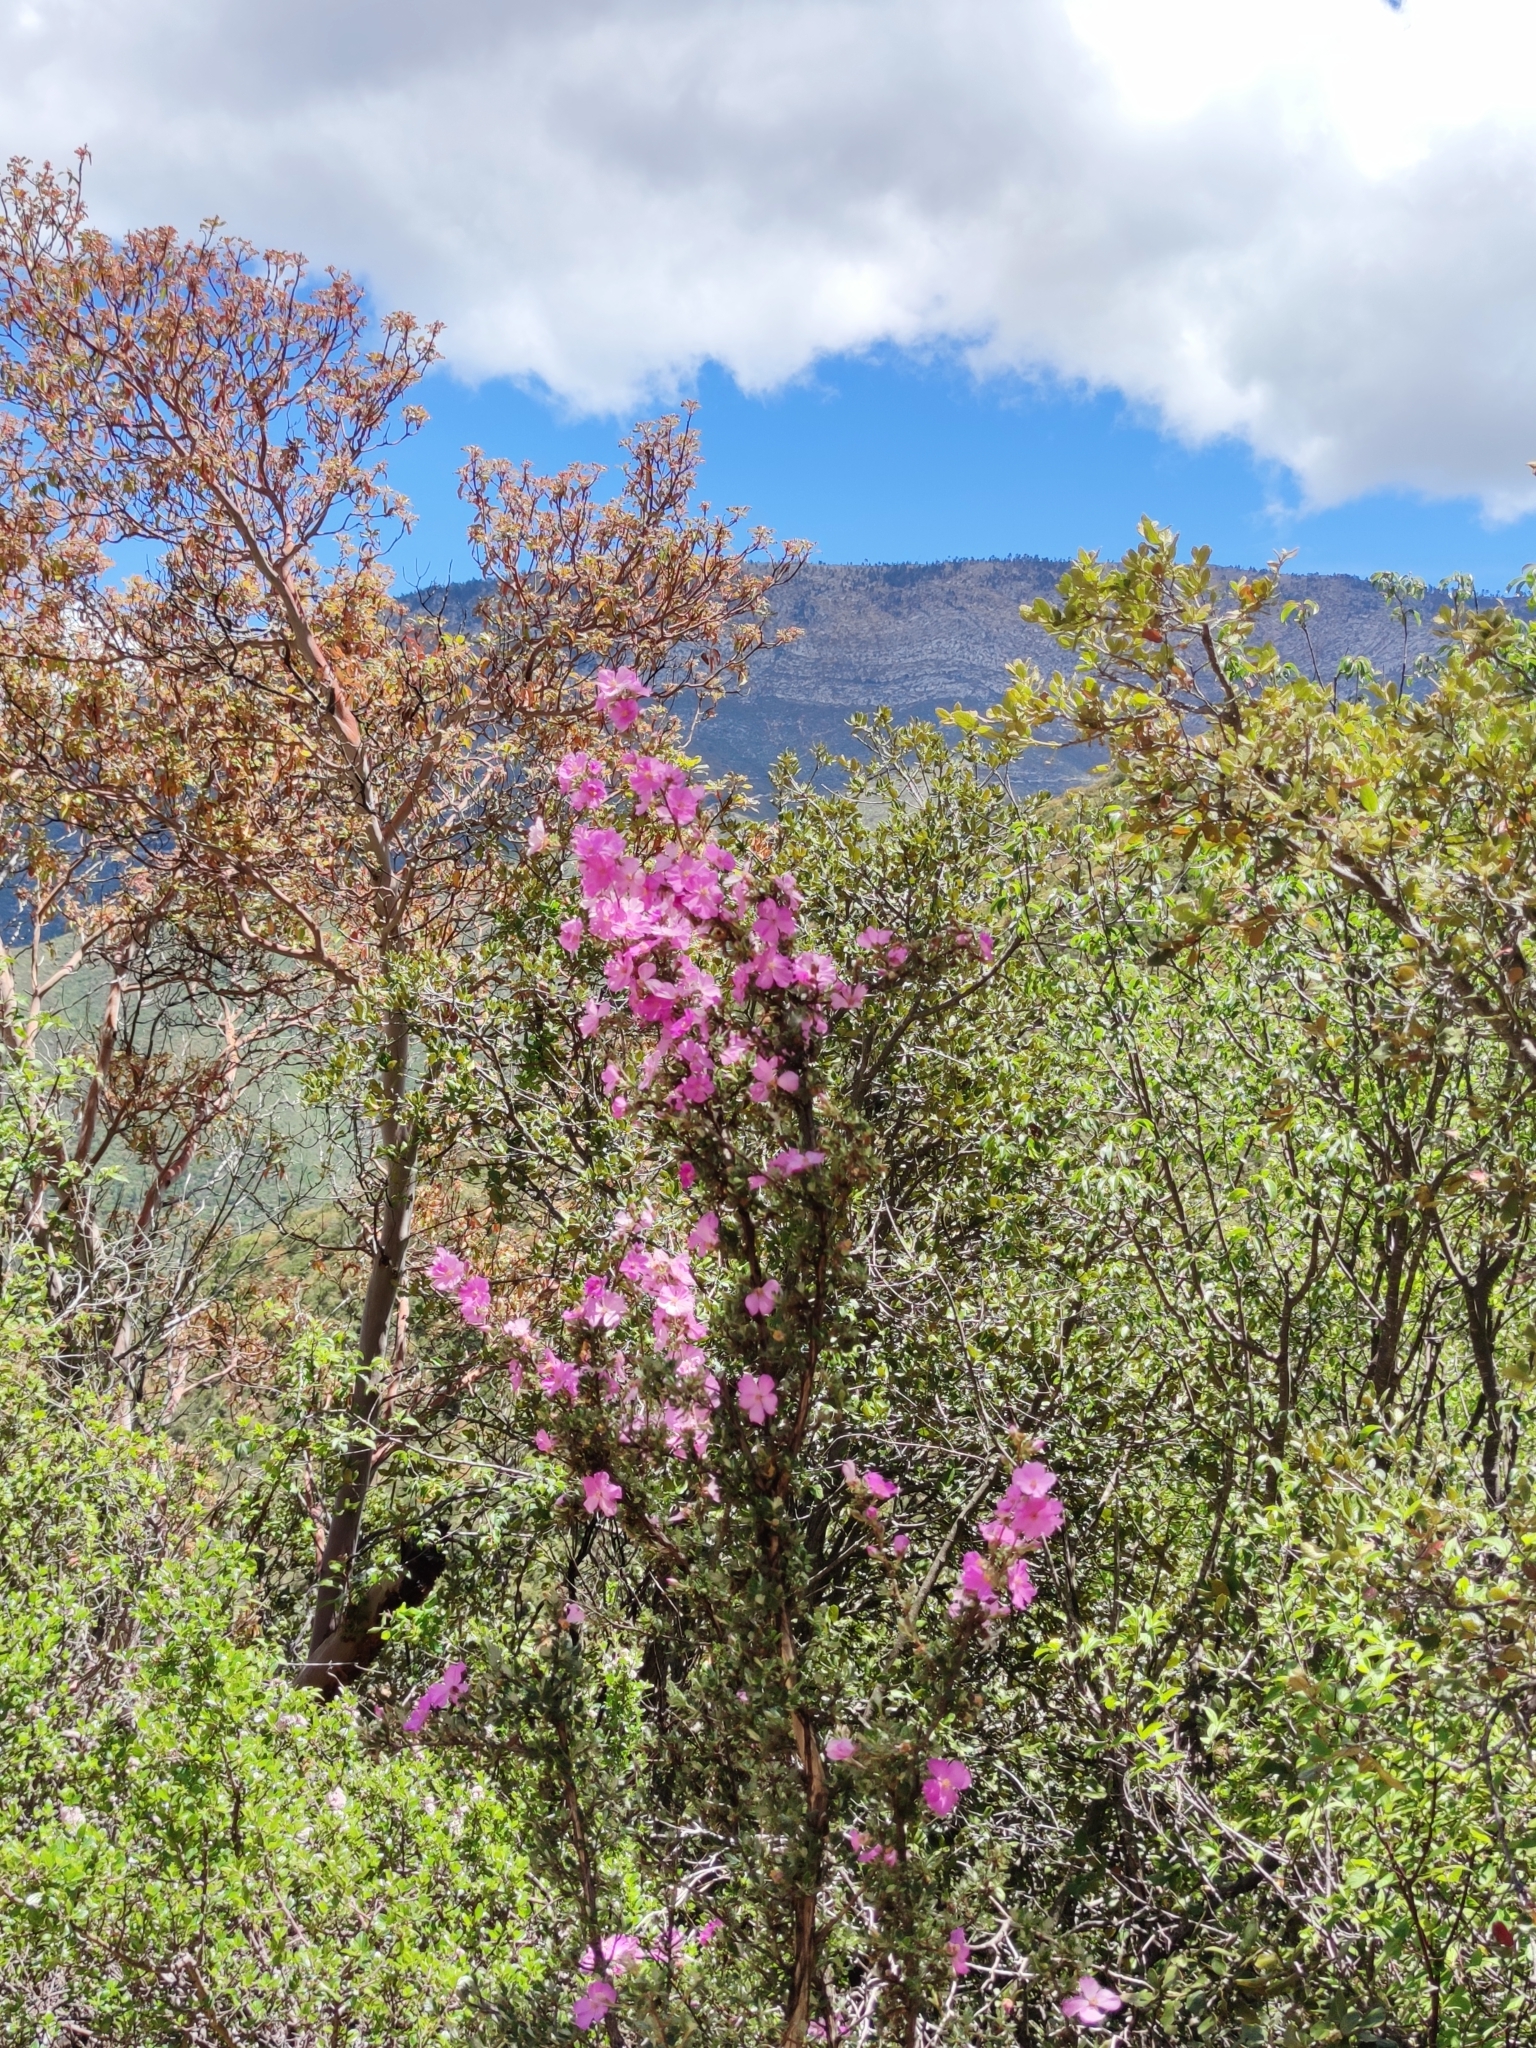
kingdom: Plantae
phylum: Tracheophyta
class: Magnoliopsida
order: Rosales
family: Rosaceae
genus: Purshia
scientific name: Purshia plicata
